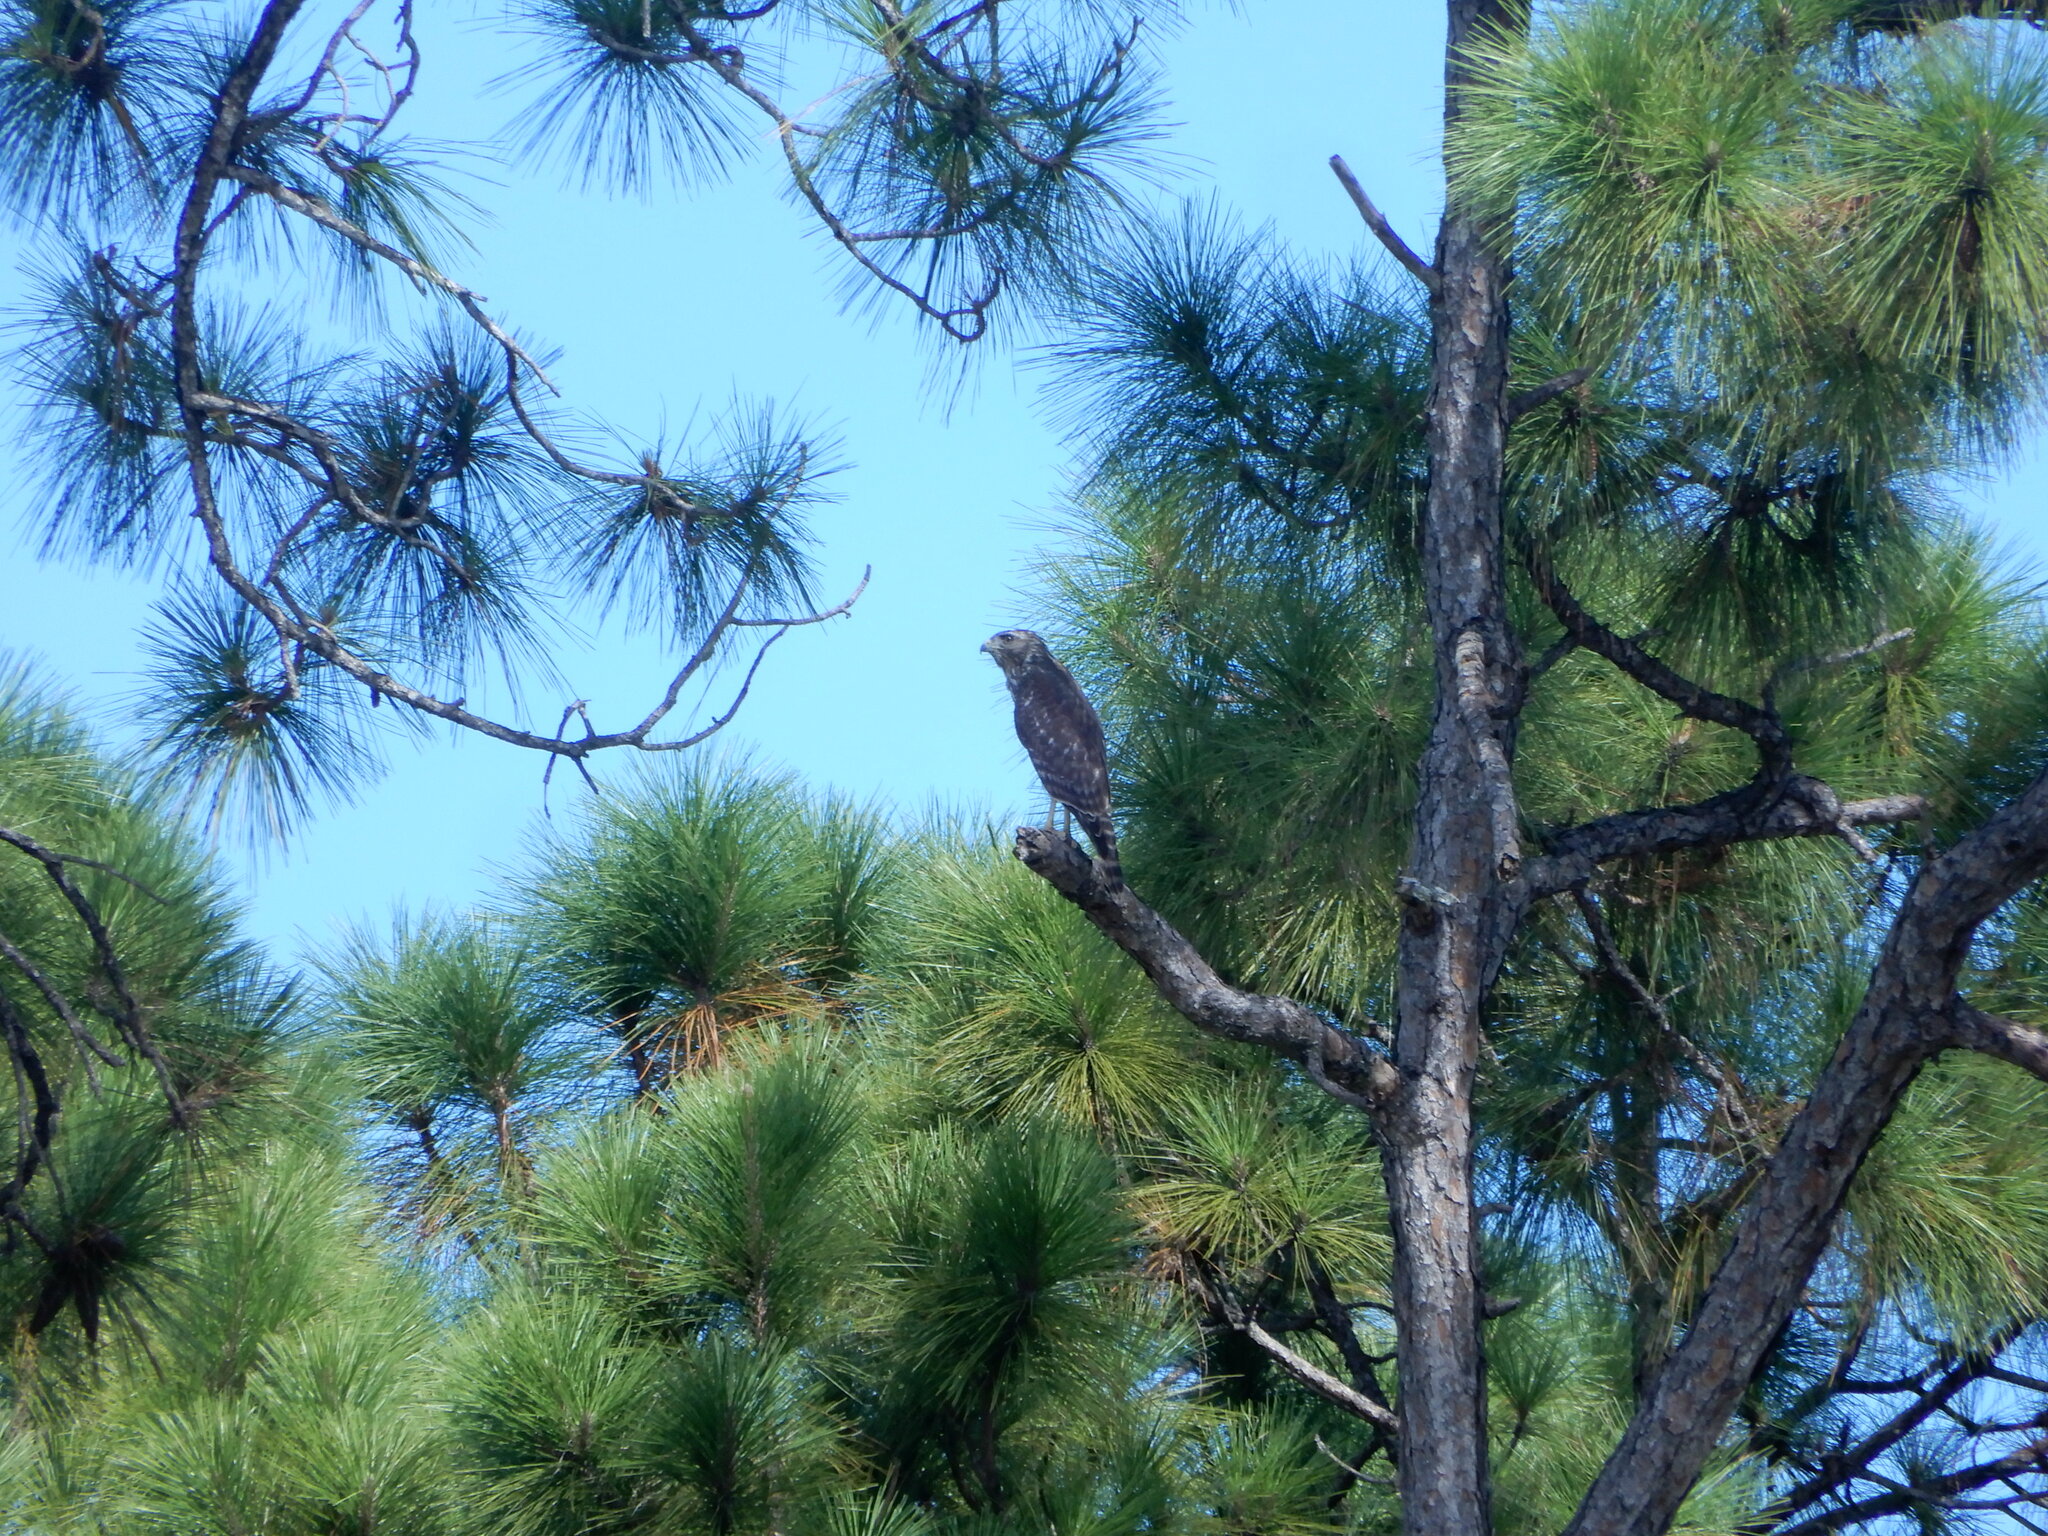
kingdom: Animalia
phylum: Chordata
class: Aves
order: Accipitriformes
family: Accipitridae
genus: Buteo
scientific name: Buteo lineatus
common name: Red-shouldered hawk
